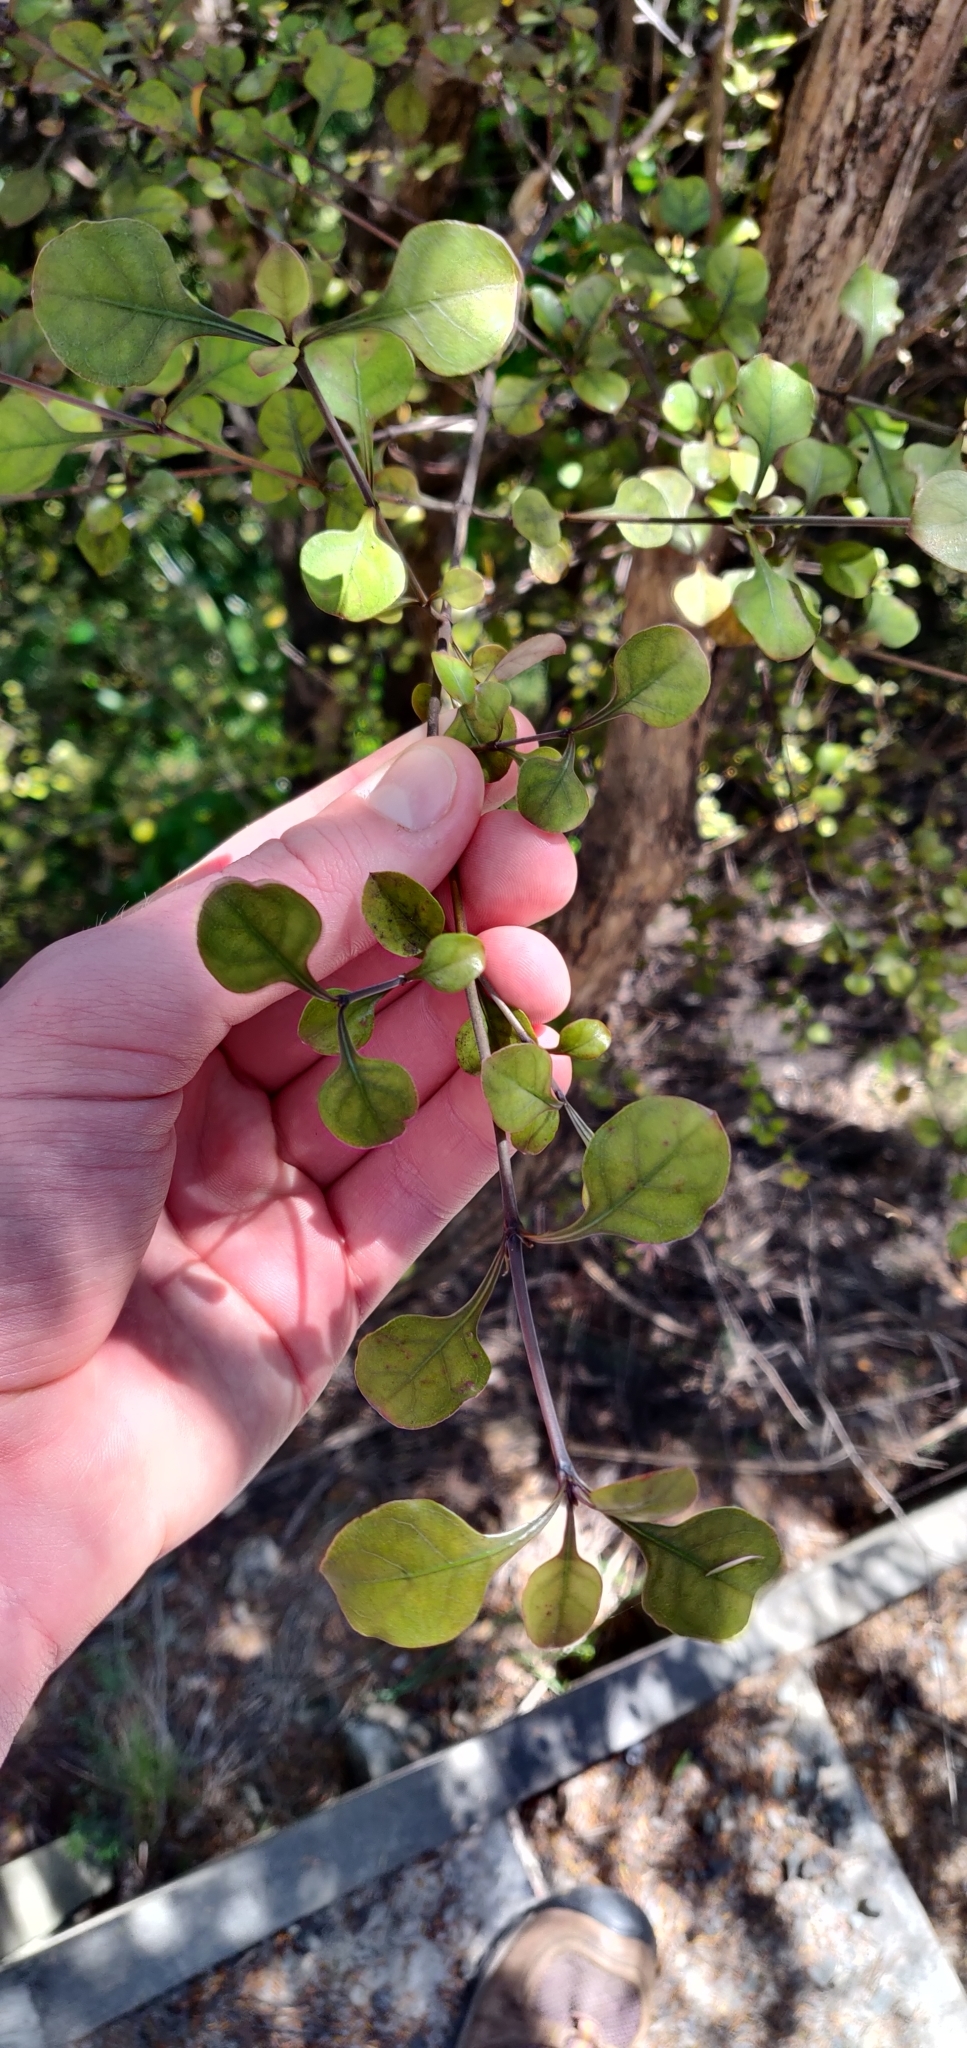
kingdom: Plantae
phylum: Tracheophyta
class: Magnoliopsida
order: Gentianales
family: Rubiaceae
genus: Coprosma
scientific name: Coprosma arborea
